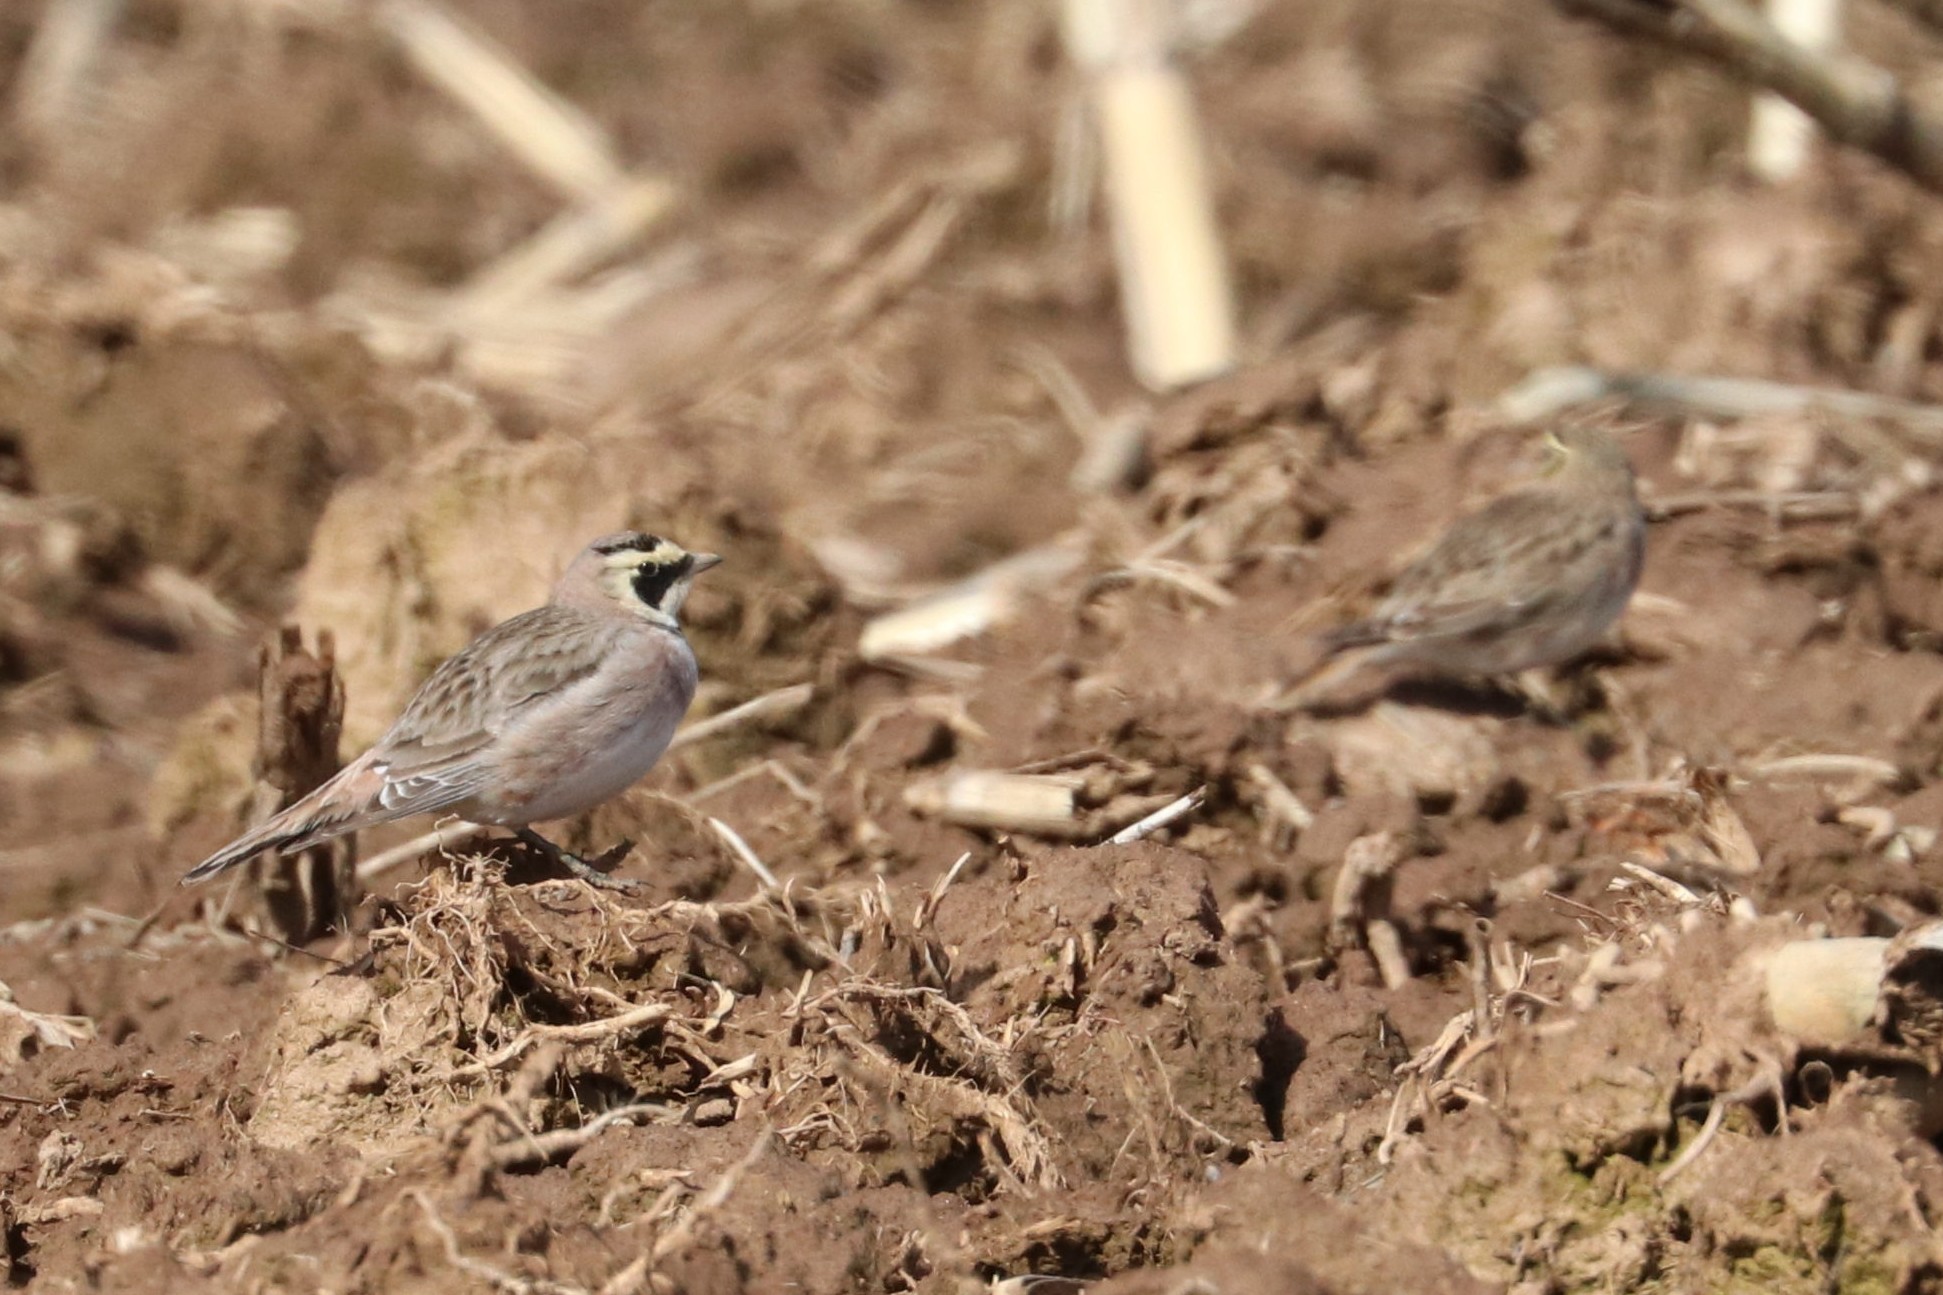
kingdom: Animalia
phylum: Chordata
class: Aves
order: Passeriformes
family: Alaudidae
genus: Eremophila
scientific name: Eremophila alpestris
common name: Horned lark
